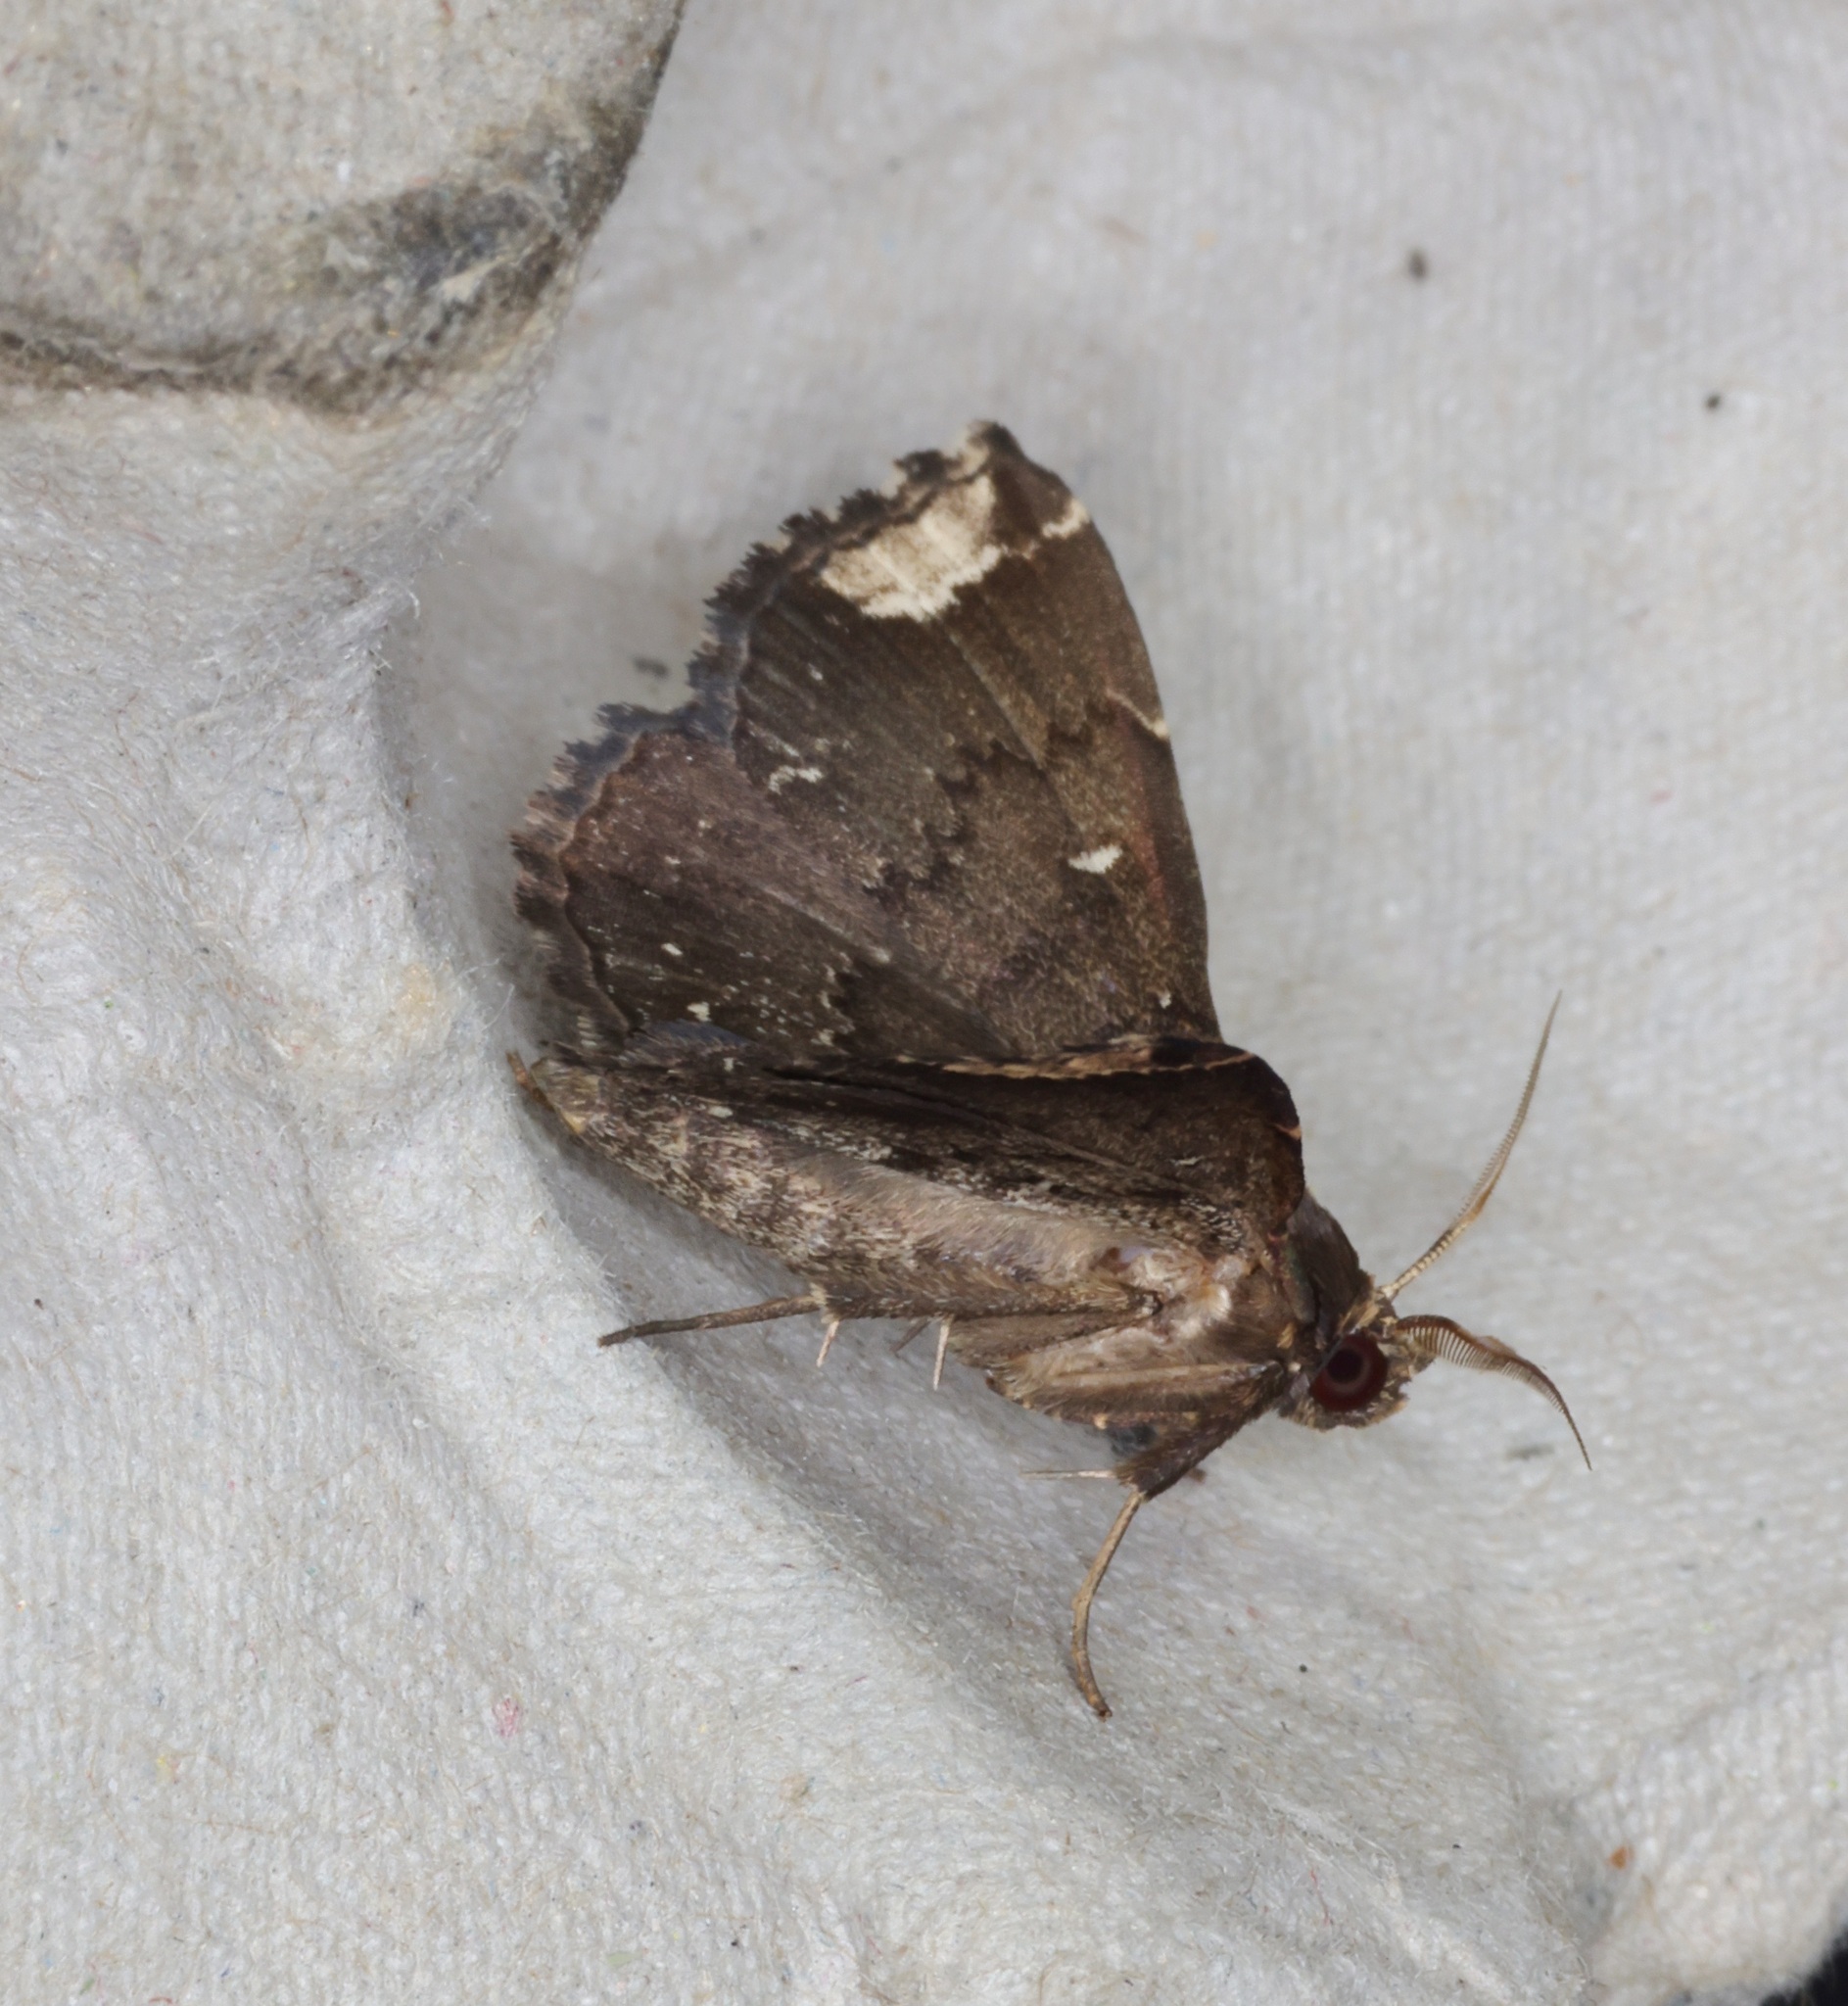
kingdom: Animalia
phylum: Arthropoda
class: Insecta
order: Lepidoptera
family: Erebidae
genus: Adrapsa
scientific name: Adrapsa quadrilinealis
